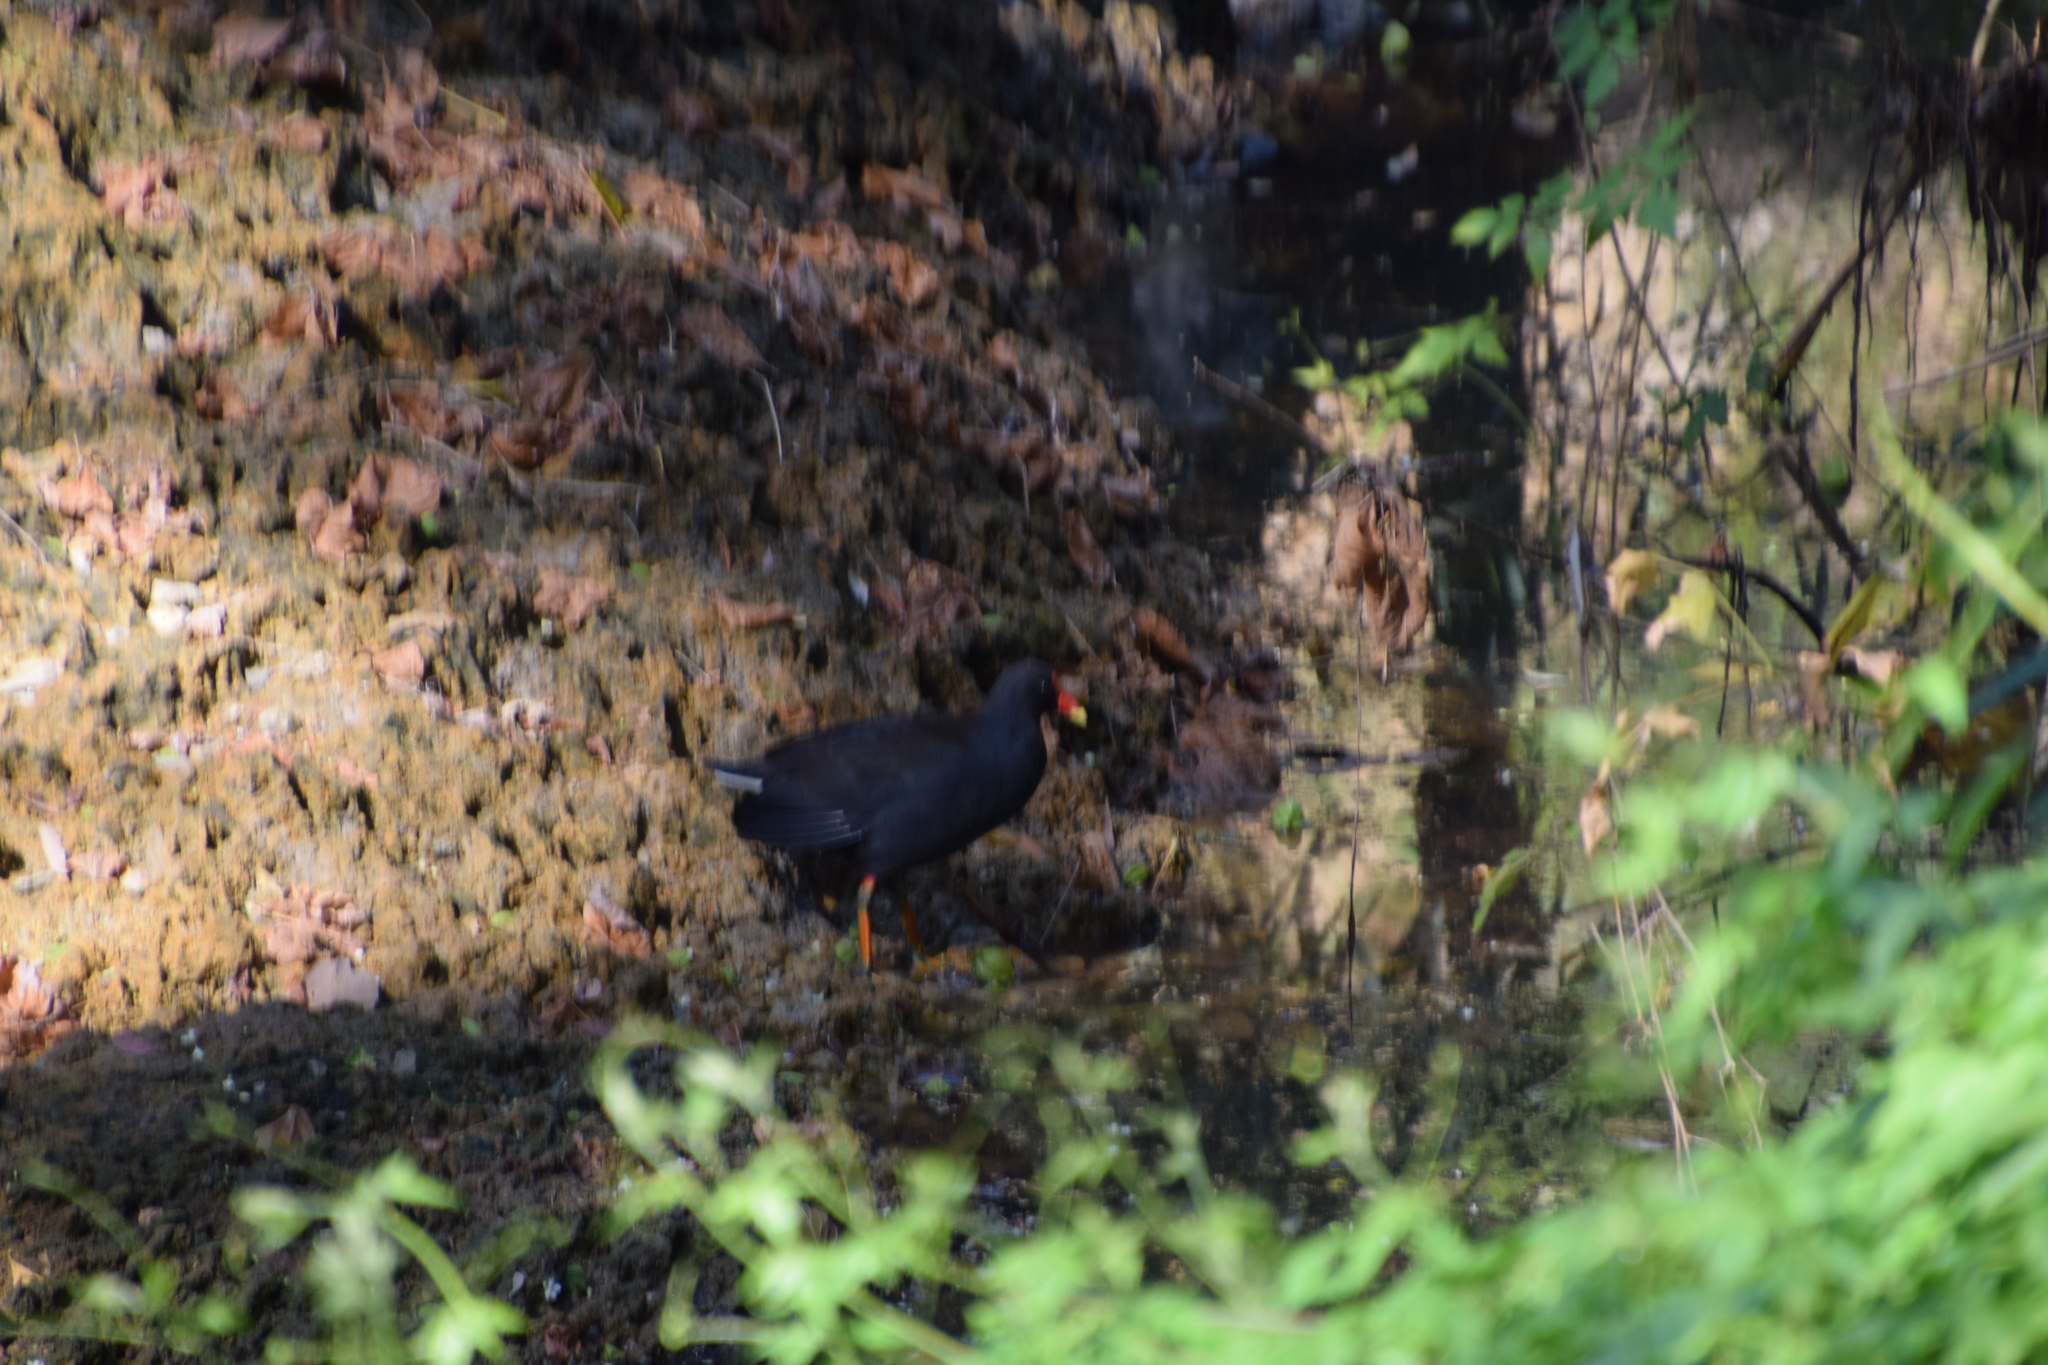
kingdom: Animalia
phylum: Chordata
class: Aves
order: Gruiformes
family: Rallidae
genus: Gallinula
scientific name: Gallinula tenebrosa
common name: Dusky moorhen
